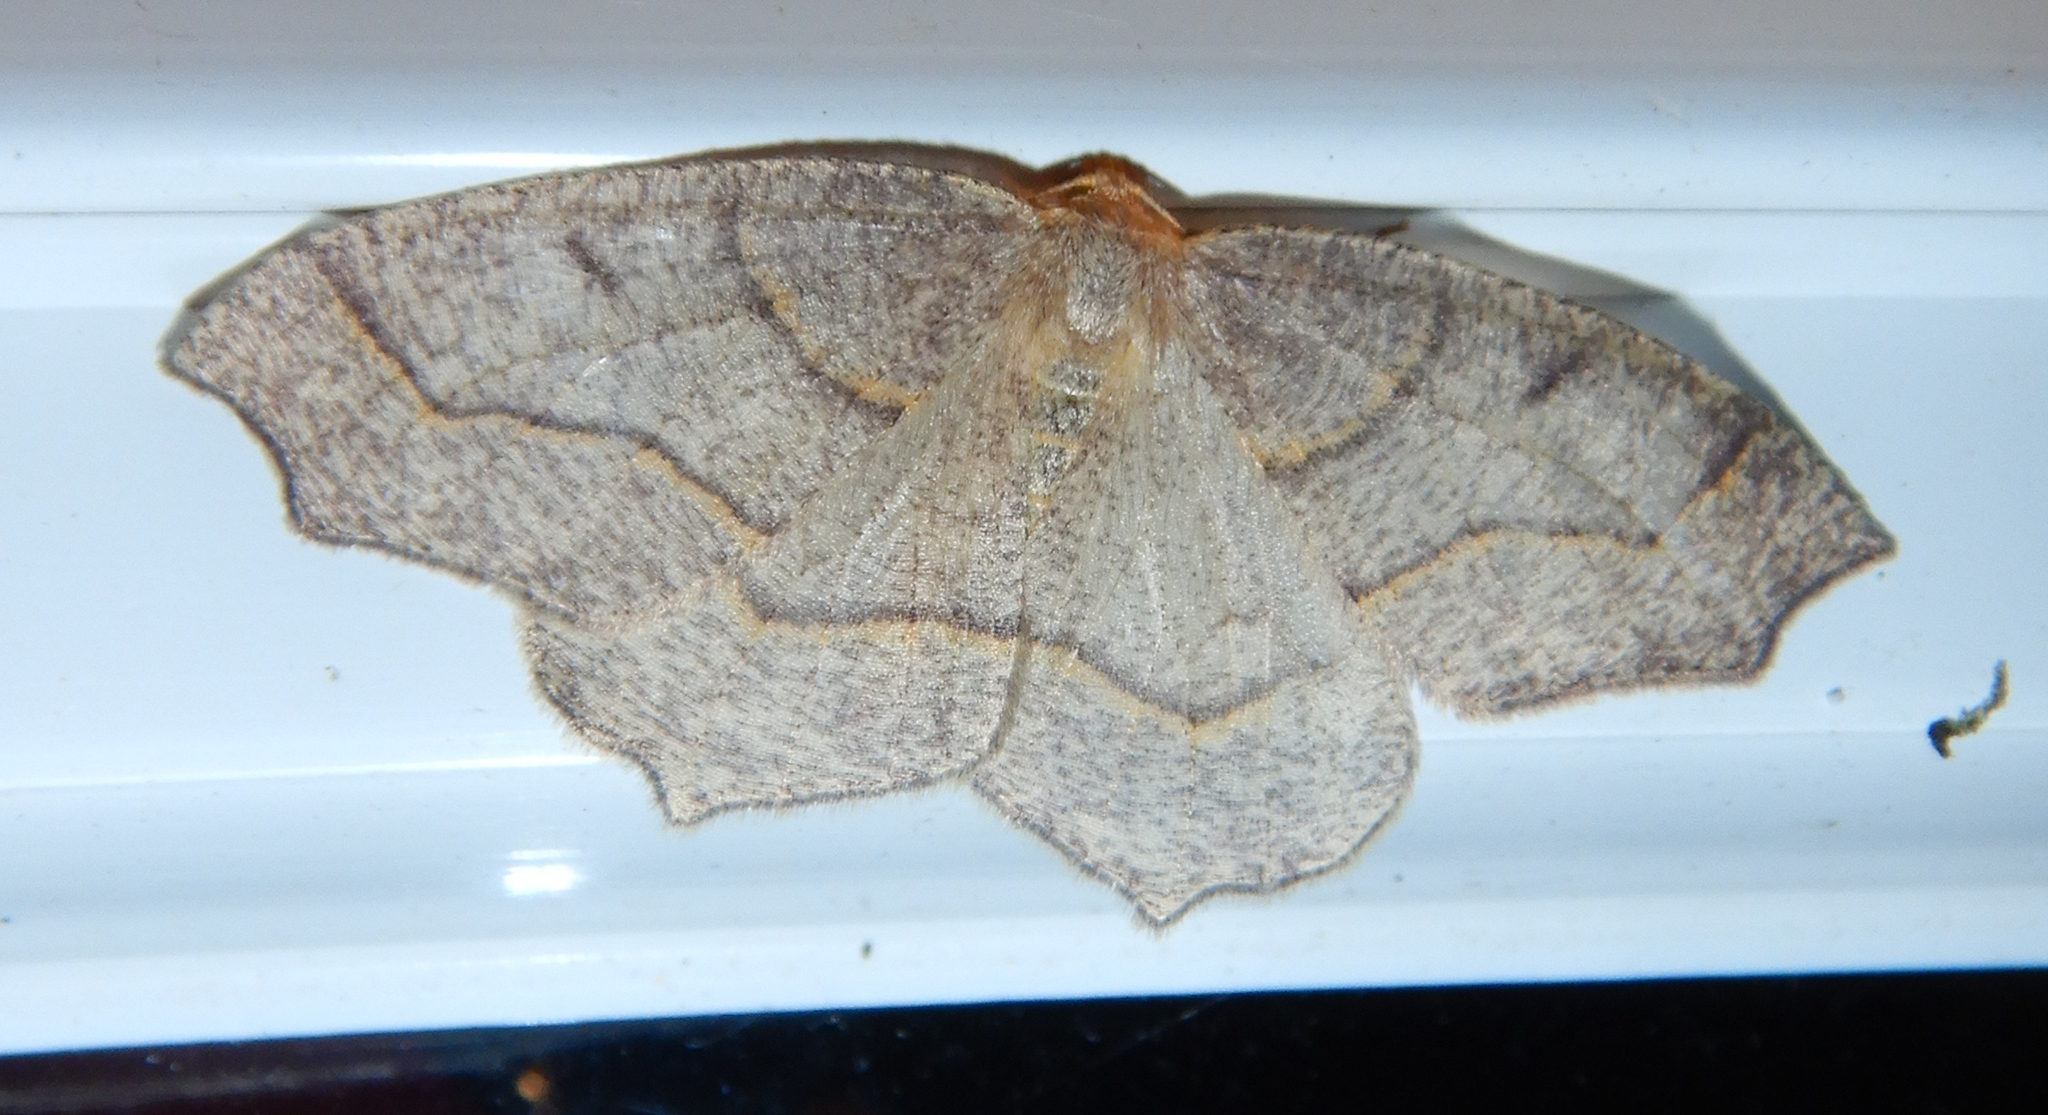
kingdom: Animalia
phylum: Arthropoda
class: Insecta
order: Lepidoptera
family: Geometridae
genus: Lambdina
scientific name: Lambdina fiscellaria
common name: Hemlock looper
